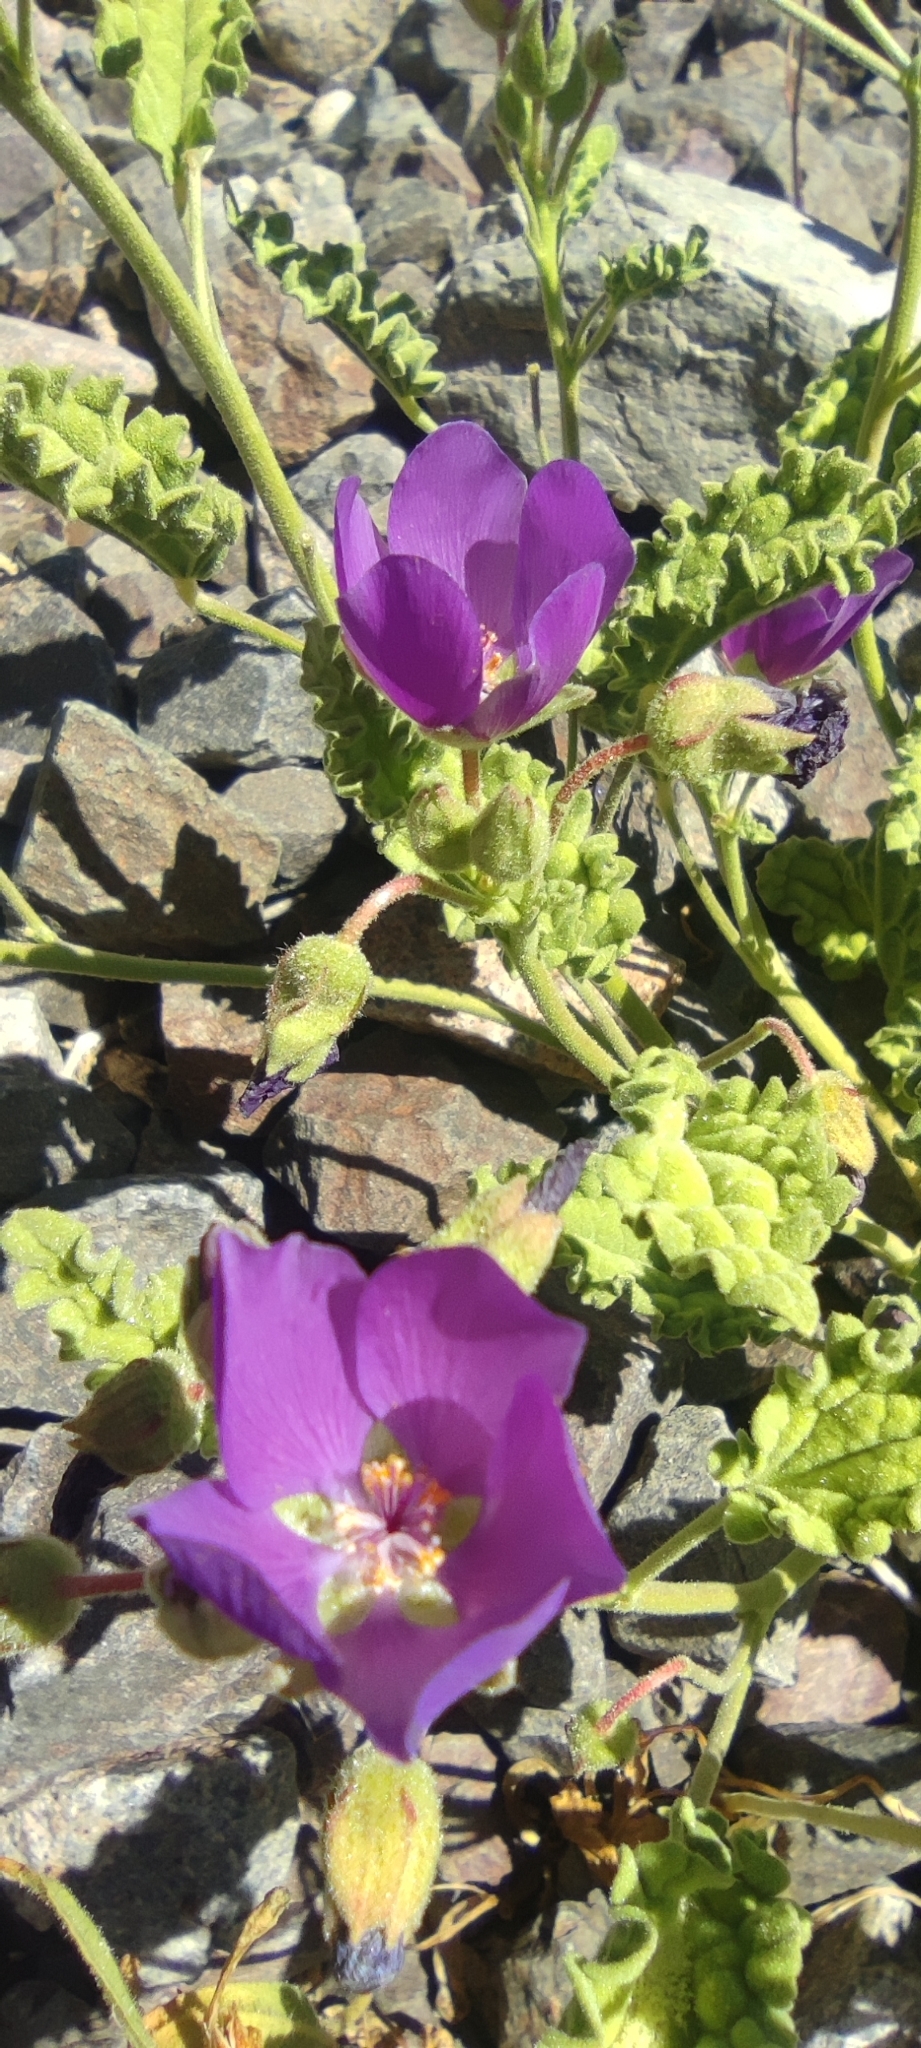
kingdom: Plantae
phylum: Tracheophyta
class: Magnoliopsida
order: Malvales
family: Malvaceae
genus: Cristaria
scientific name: Cristaria andicola
